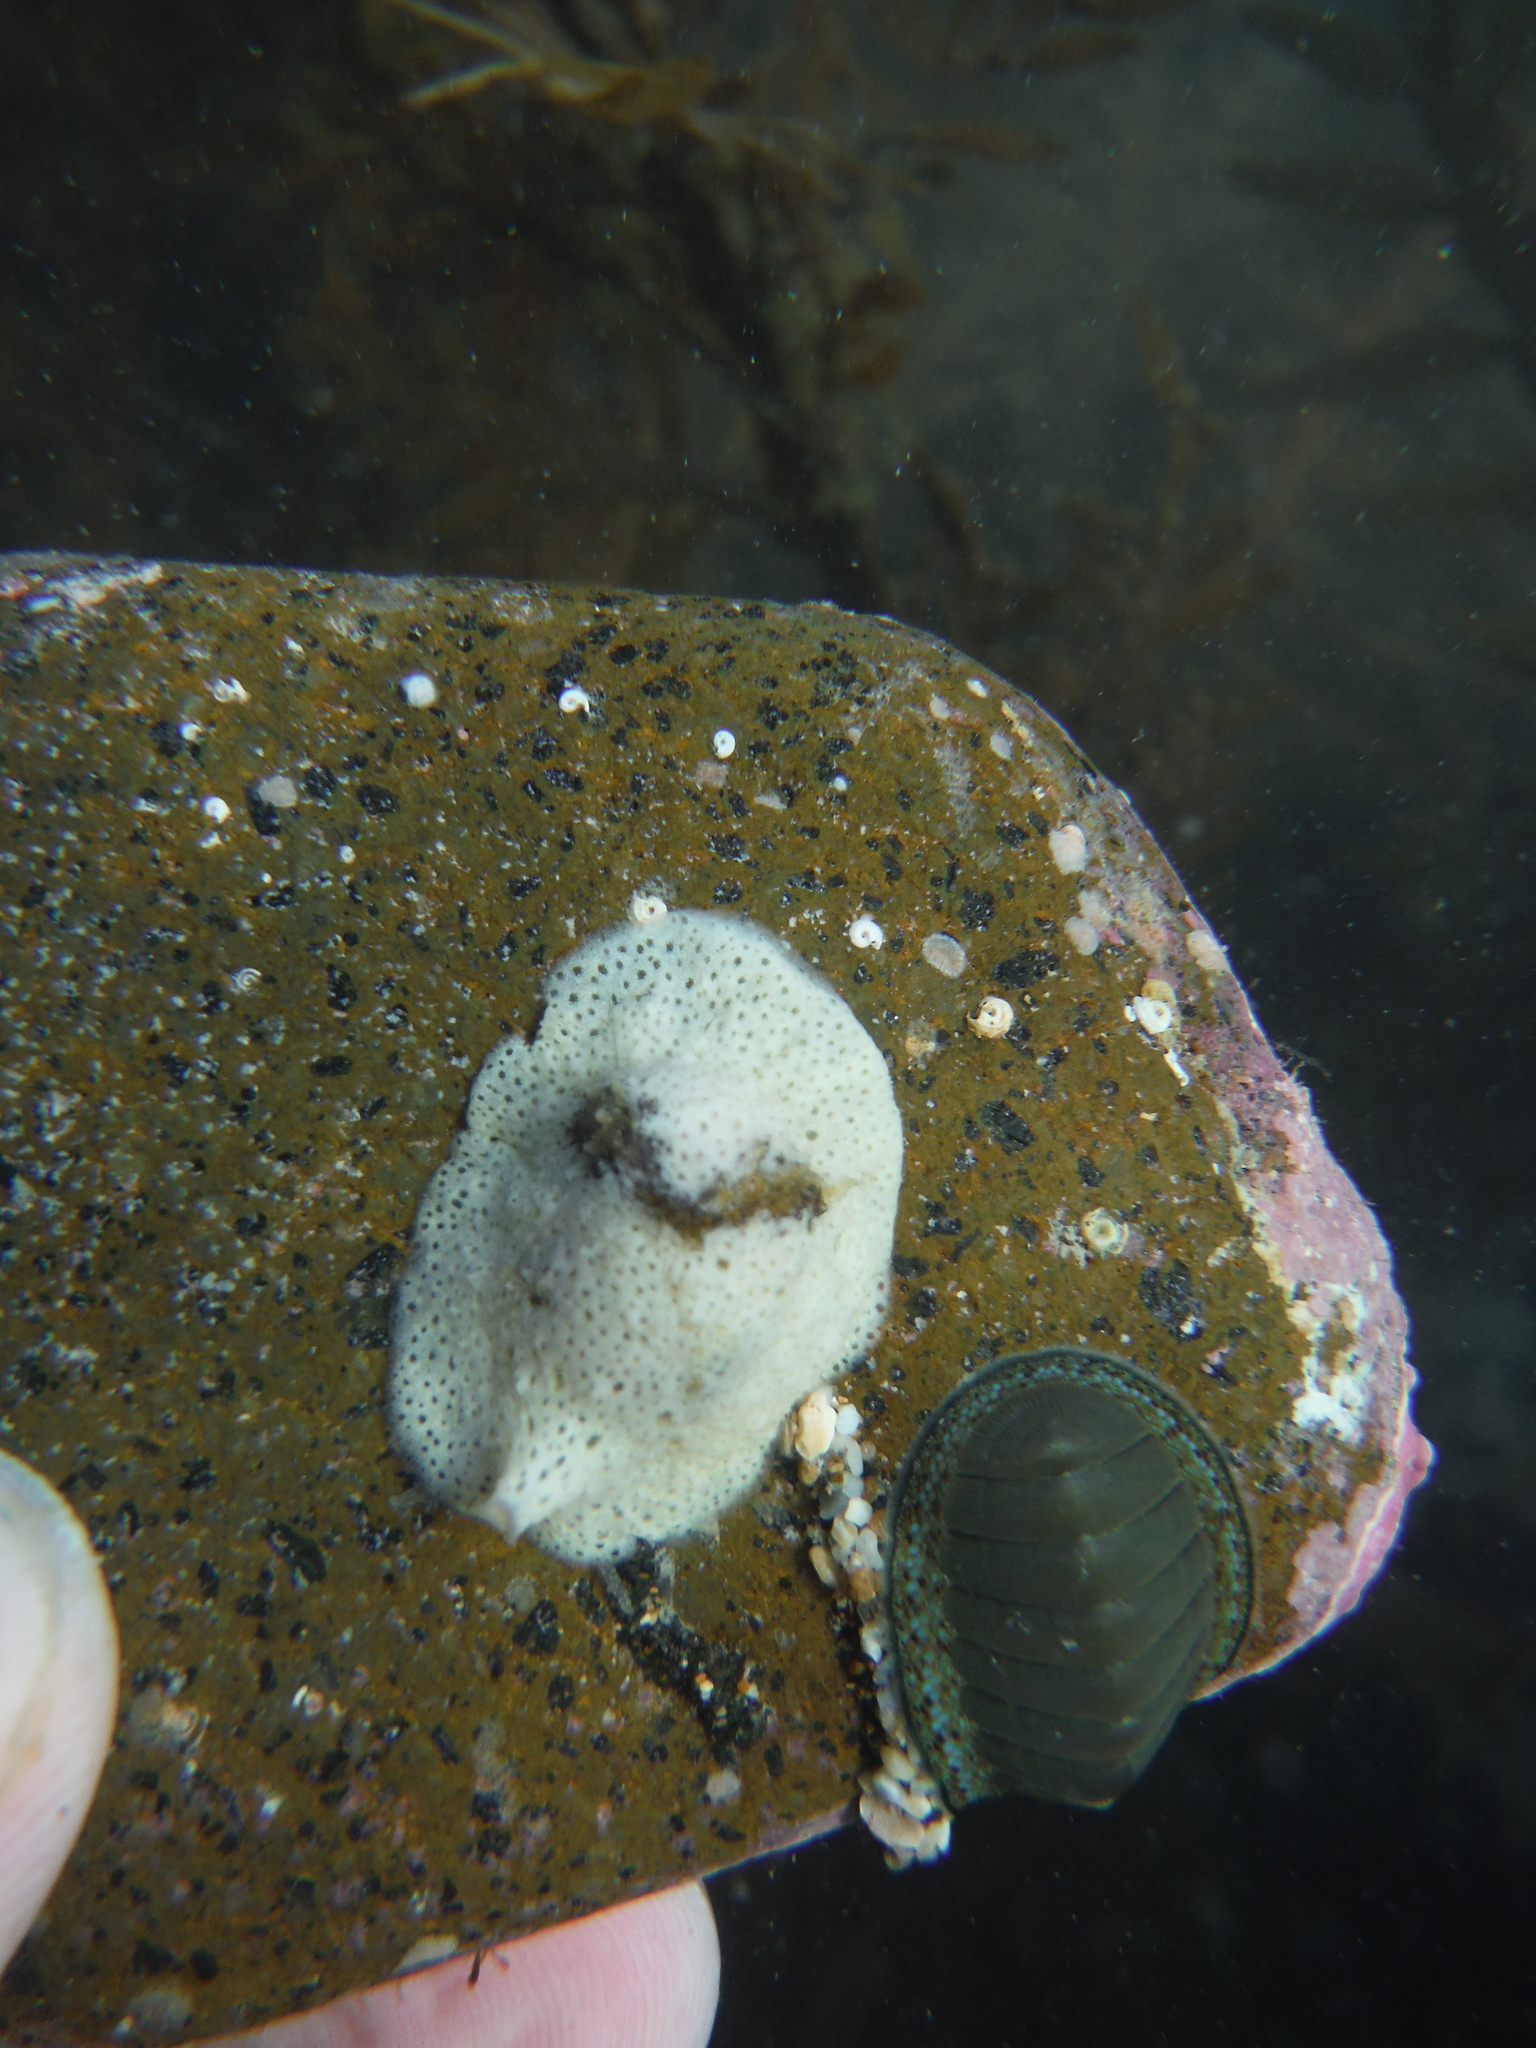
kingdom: Animalia
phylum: Mollusca
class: Gastropoda
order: Littorinimorpha
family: Velutinidae
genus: Lamellaria
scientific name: Lamellaria ophione
